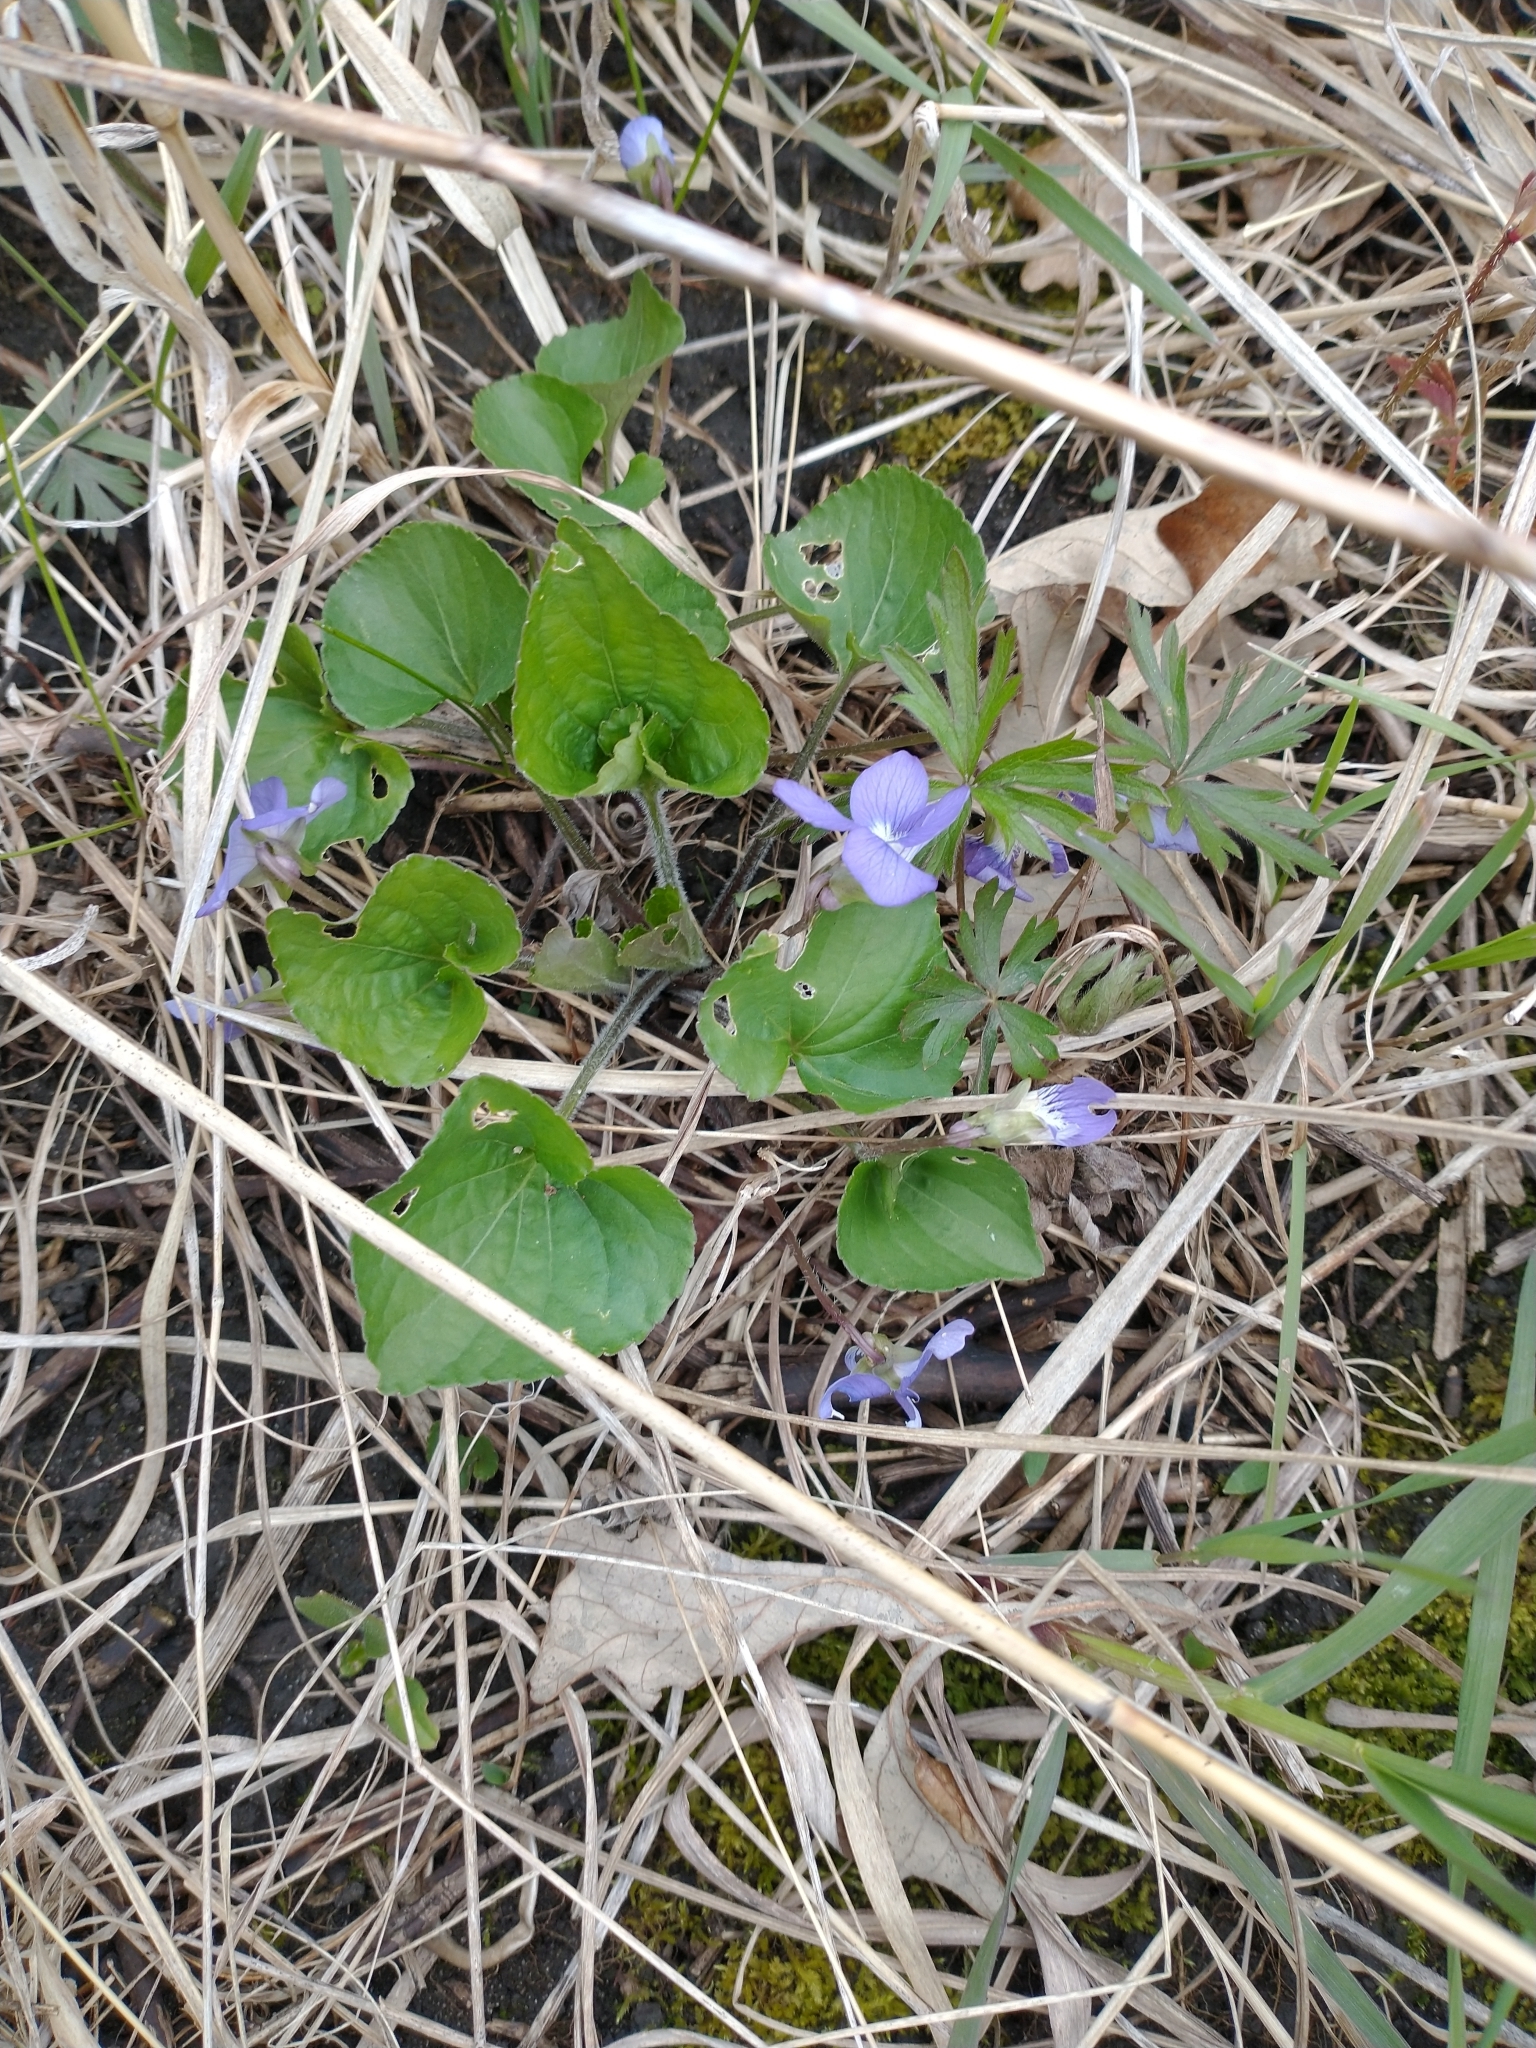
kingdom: Plantae
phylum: Tracheophyta
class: Magnoliopsida
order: Malpighiales
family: Violaceae
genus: Viola
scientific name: Viola sororia
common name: Dooryard violet
